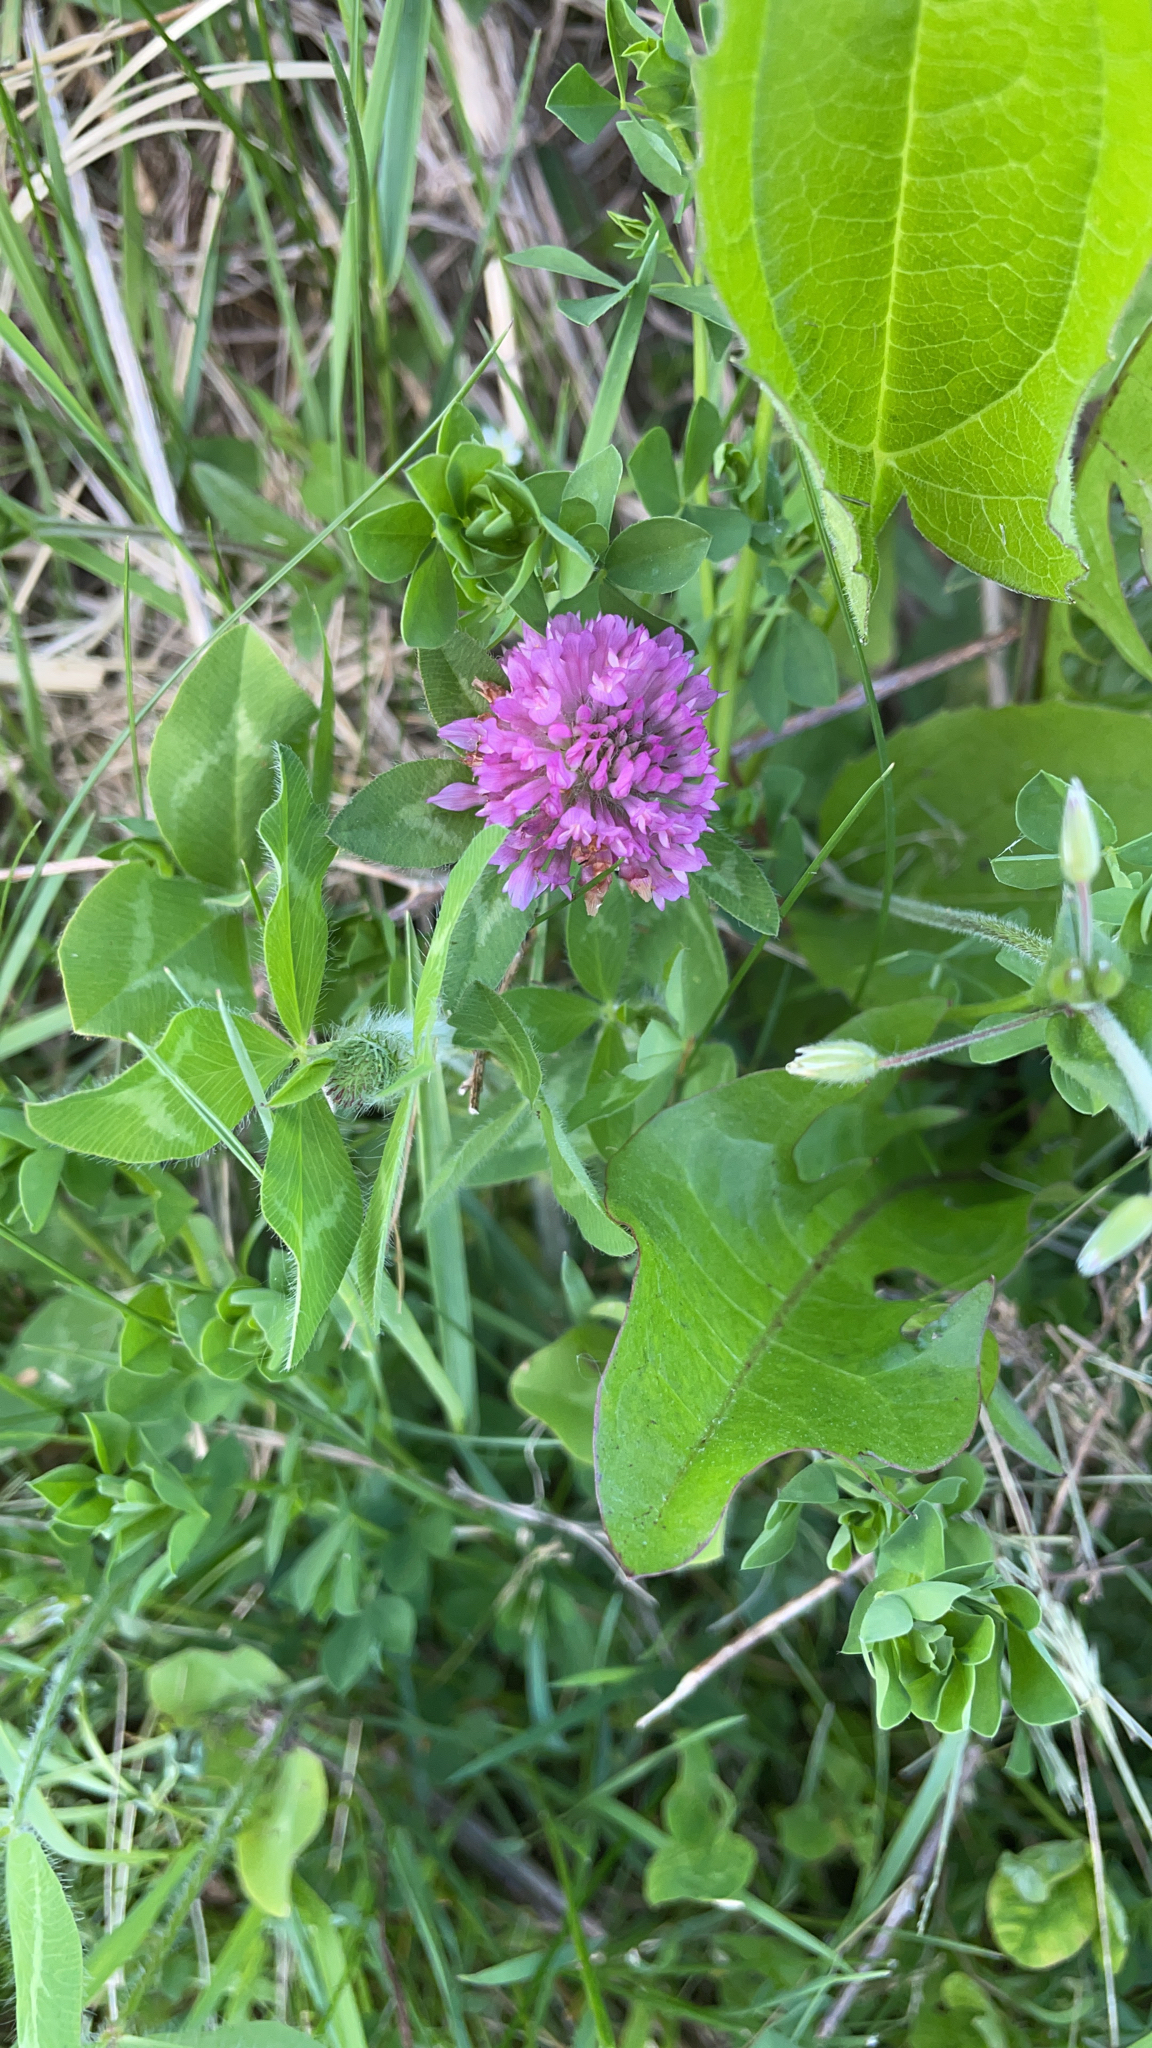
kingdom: Plantae
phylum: Tracheophyta
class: Magnoliopsida
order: Fabales
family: Fabaceae
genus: Trifolium
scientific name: Trifolium pratense
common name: Red clover
